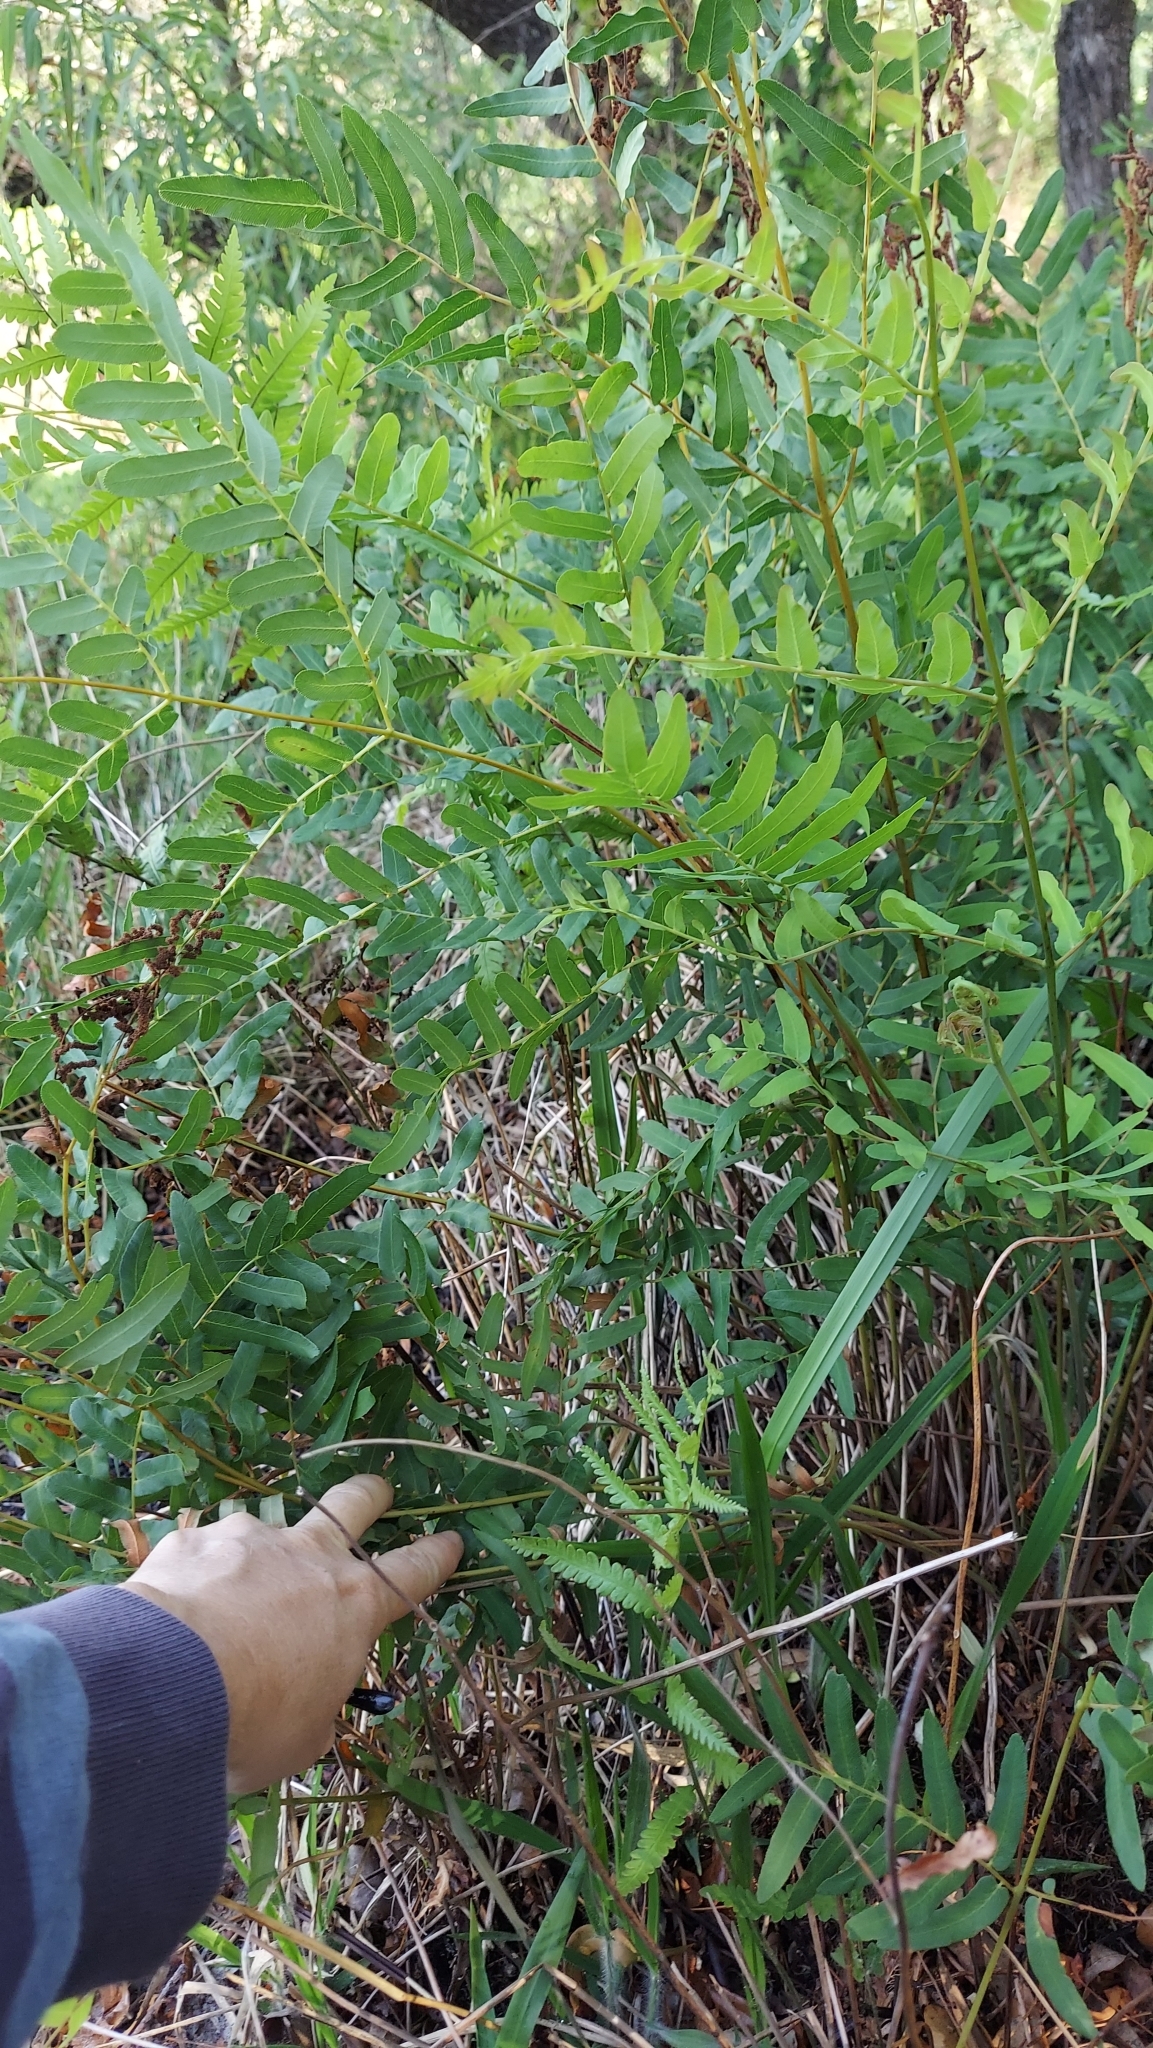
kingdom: Plantae
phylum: Tracheophyta
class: Polypodiopsida
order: Osmundales
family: Osmundaceae
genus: Osmunda
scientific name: Osmunda spectabilis
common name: American royal fern
